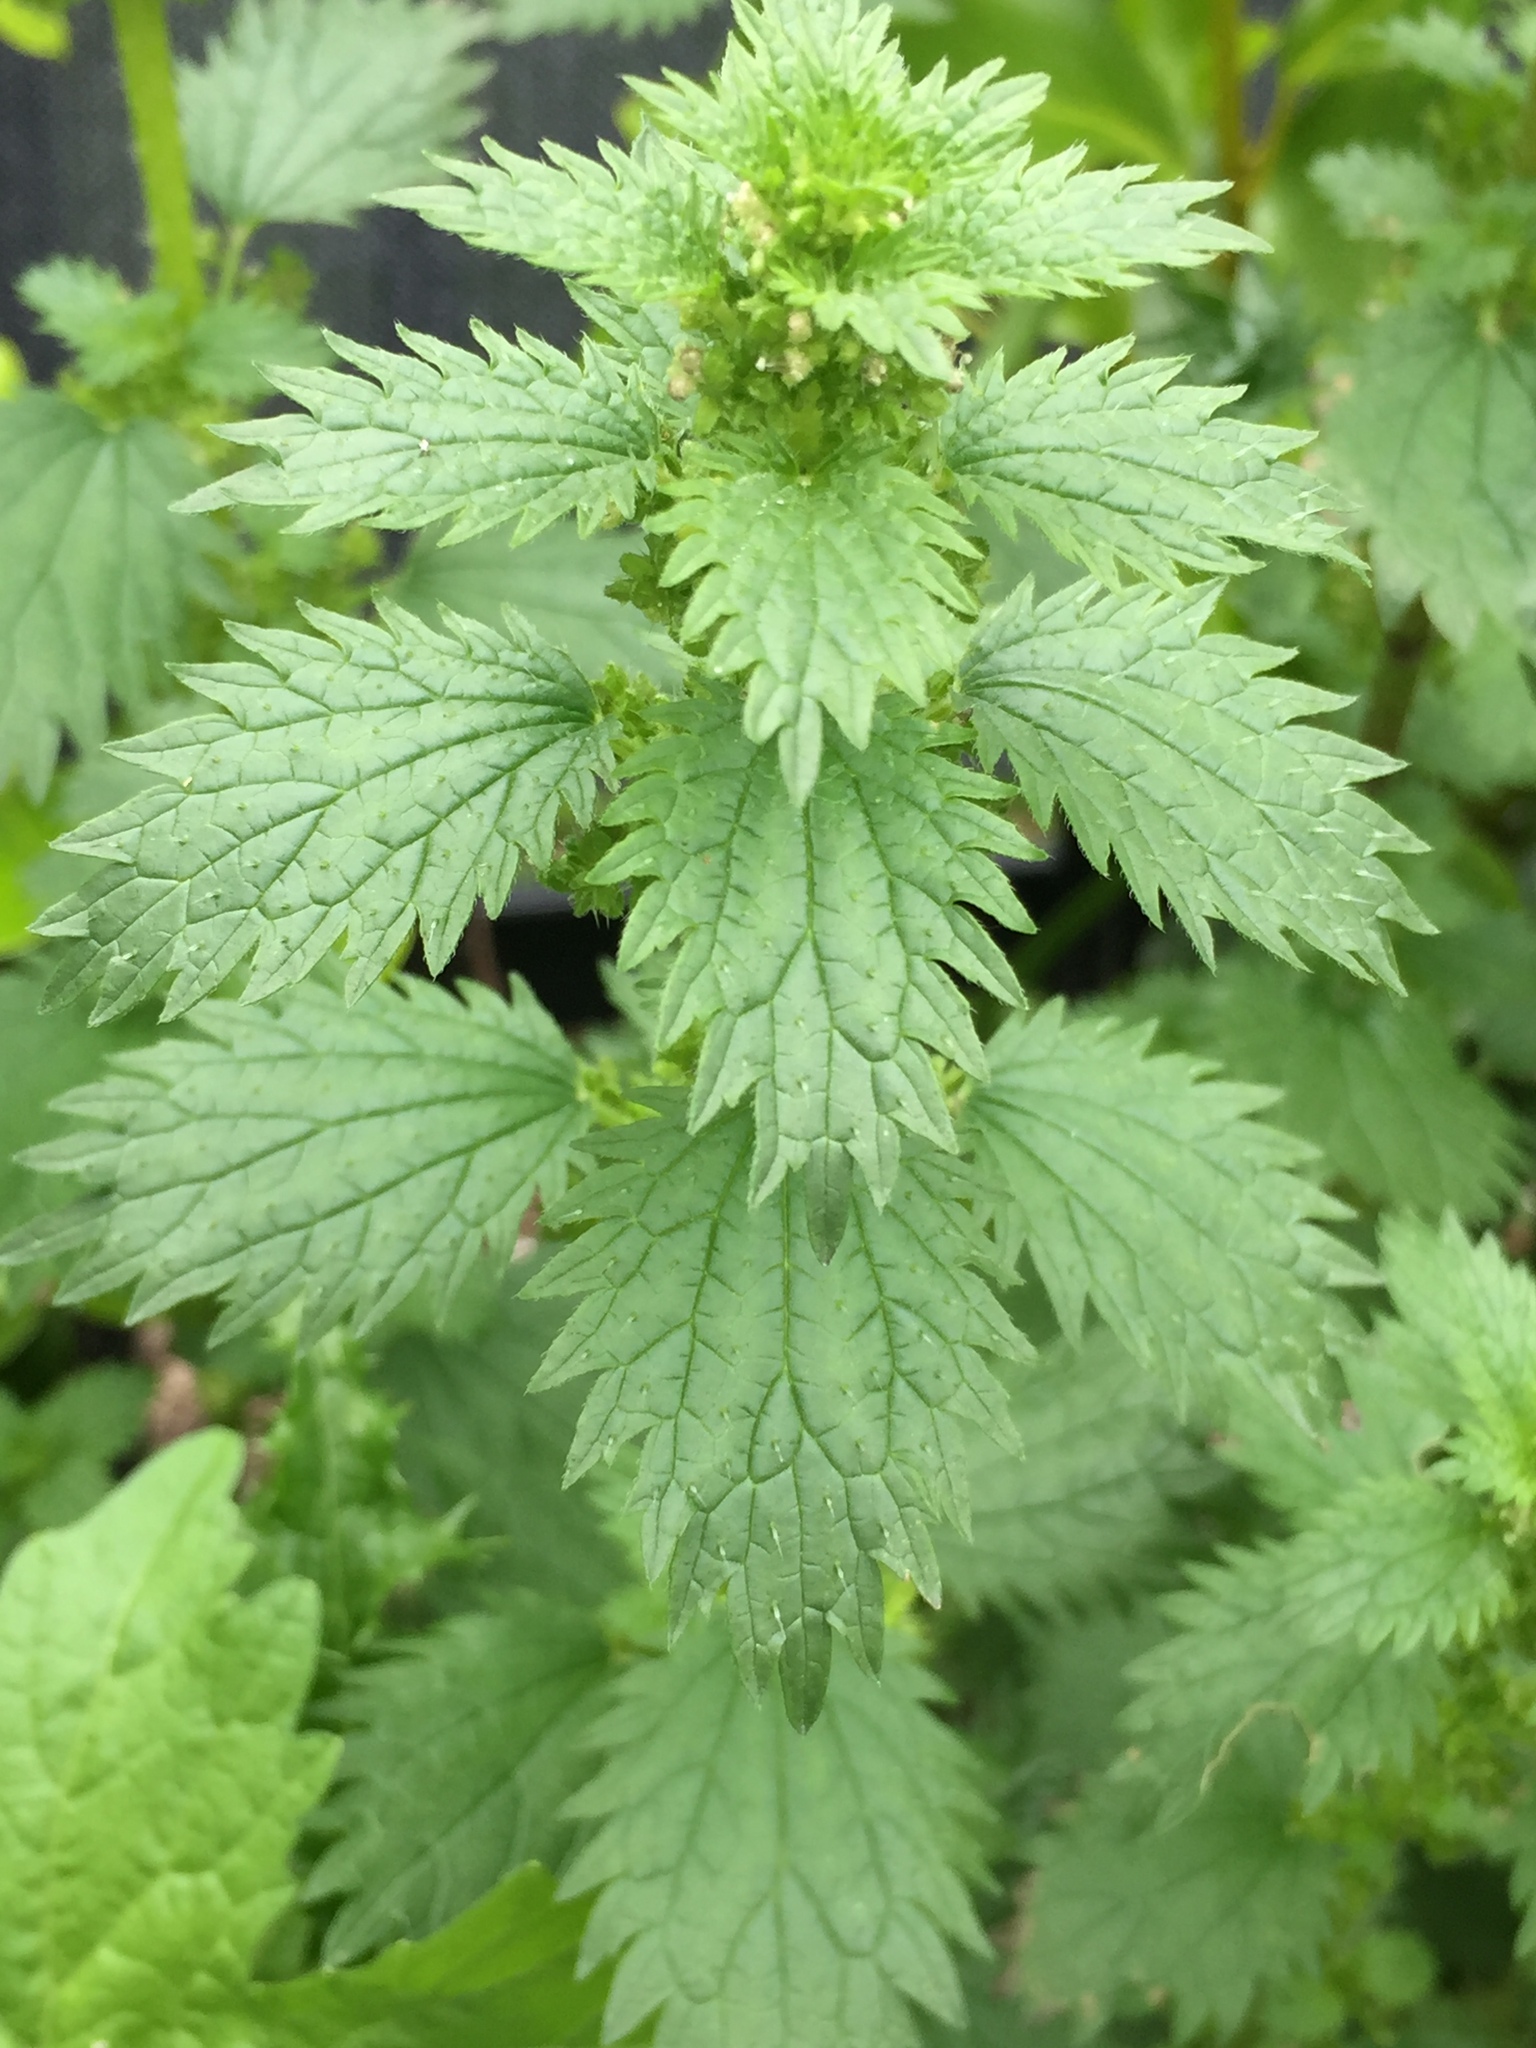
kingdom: Plantae
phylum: Tracheophyta
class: Magnoliopsida
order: Rosales
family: Urticaceae
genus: Urtica
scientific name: Urtica urens
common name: Dwarf nettle
